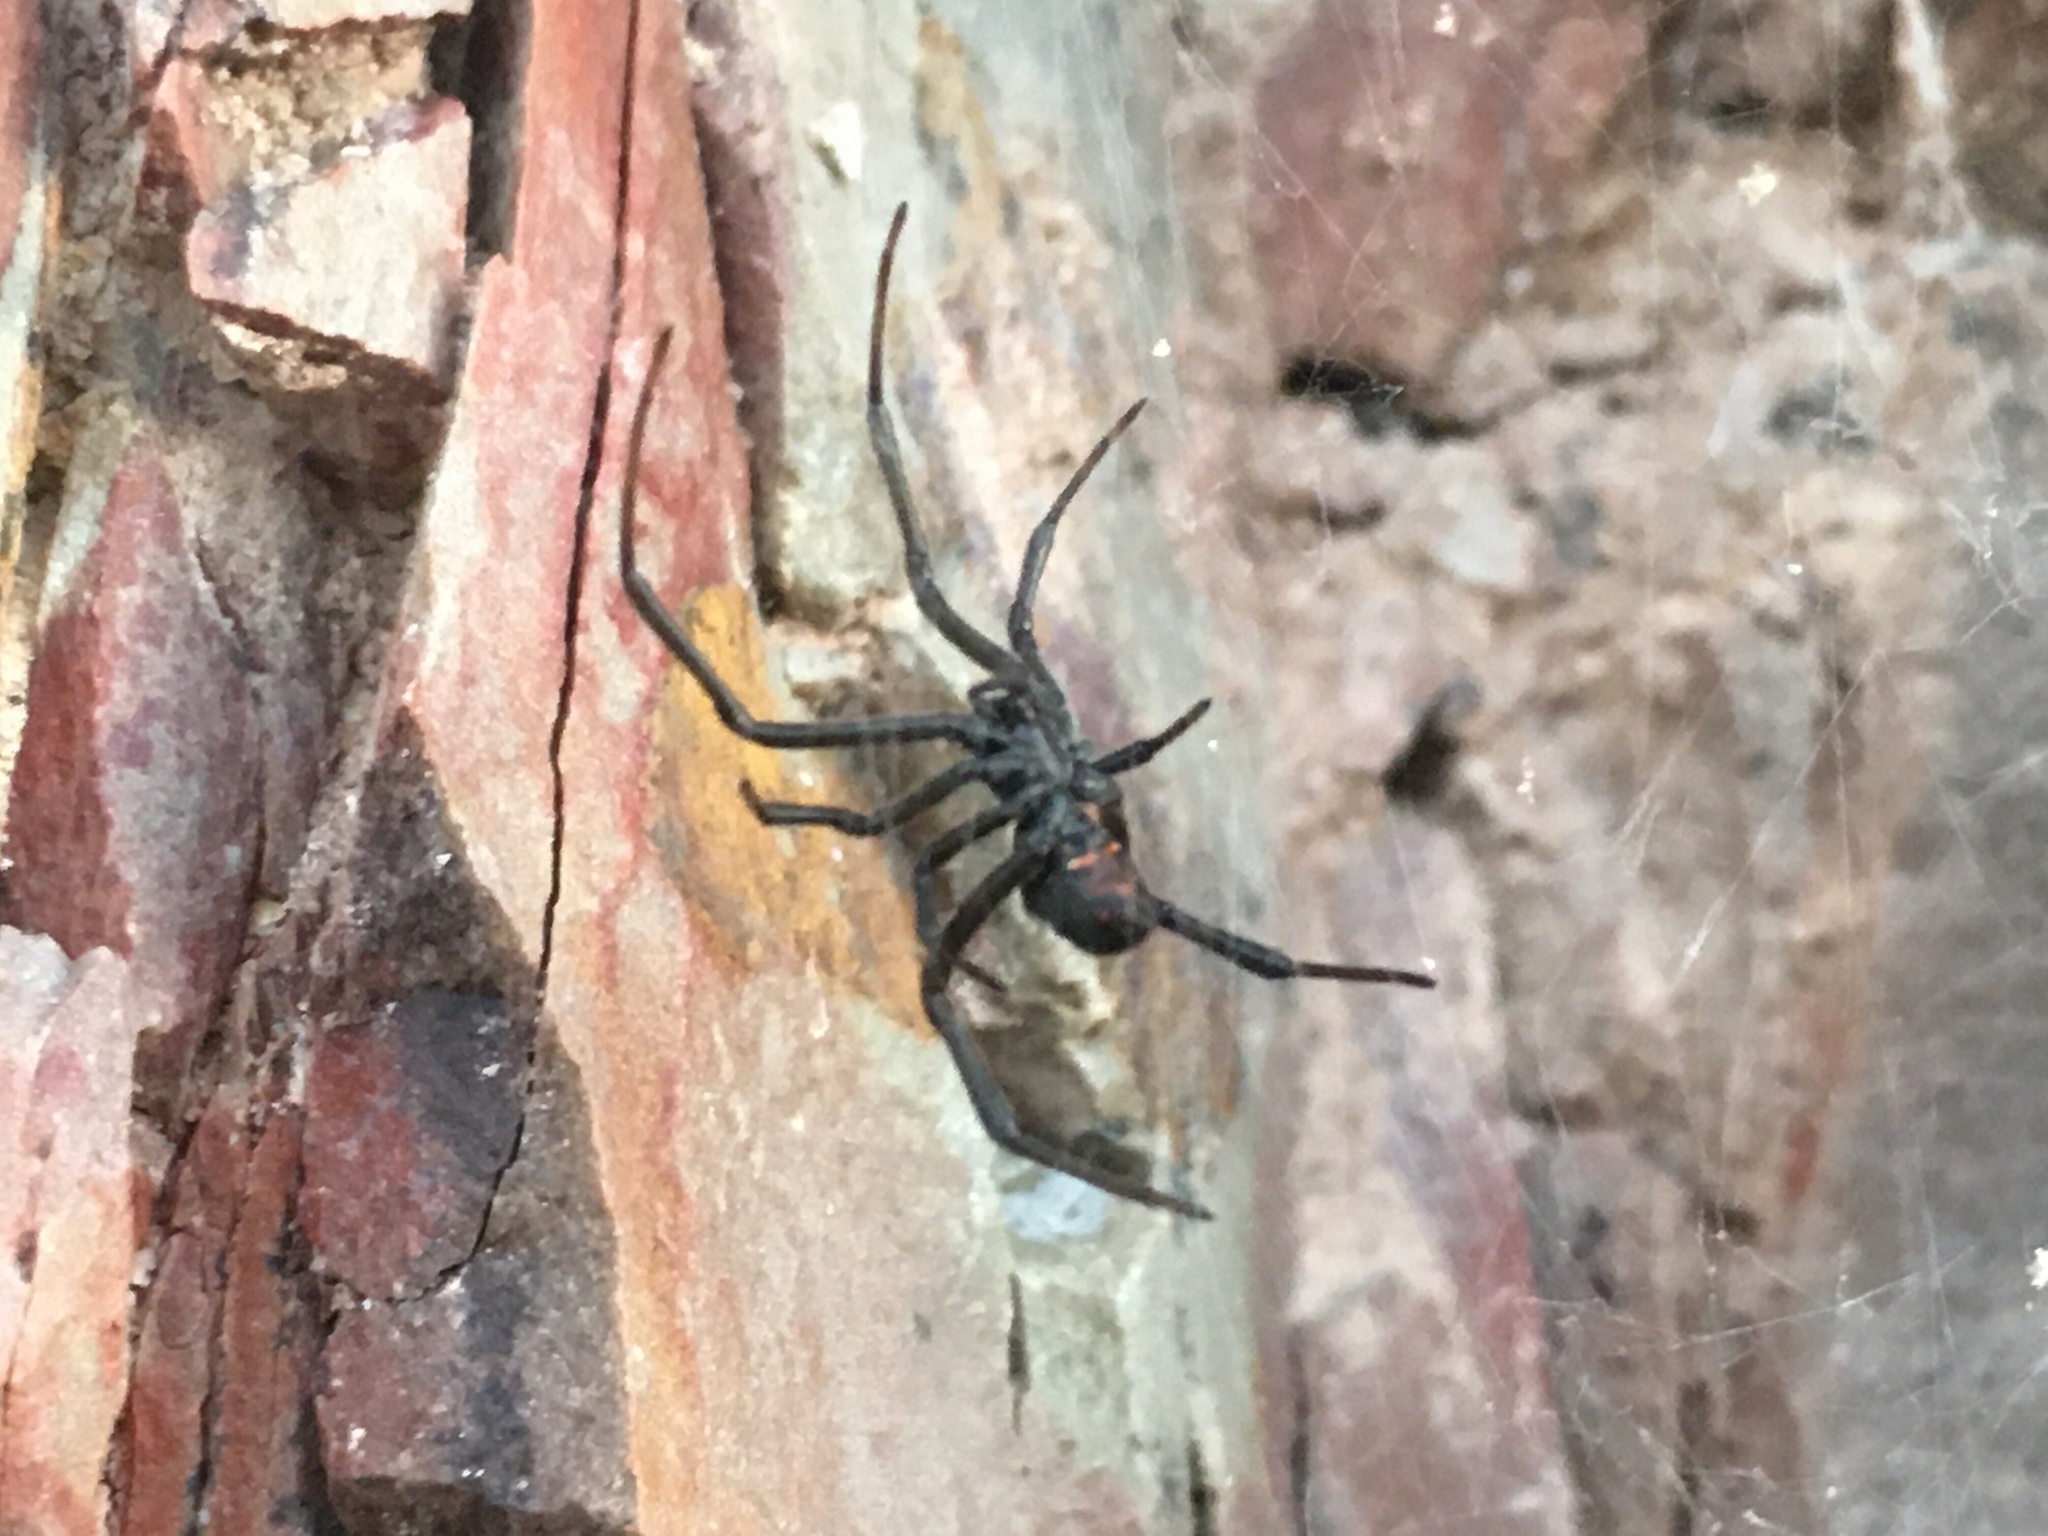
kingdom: Animalia
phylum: Arthropoda
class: Arachnida
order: Araneae
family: Theridiidae
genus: Latrodectus
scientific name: Latrodectus mirabilis
